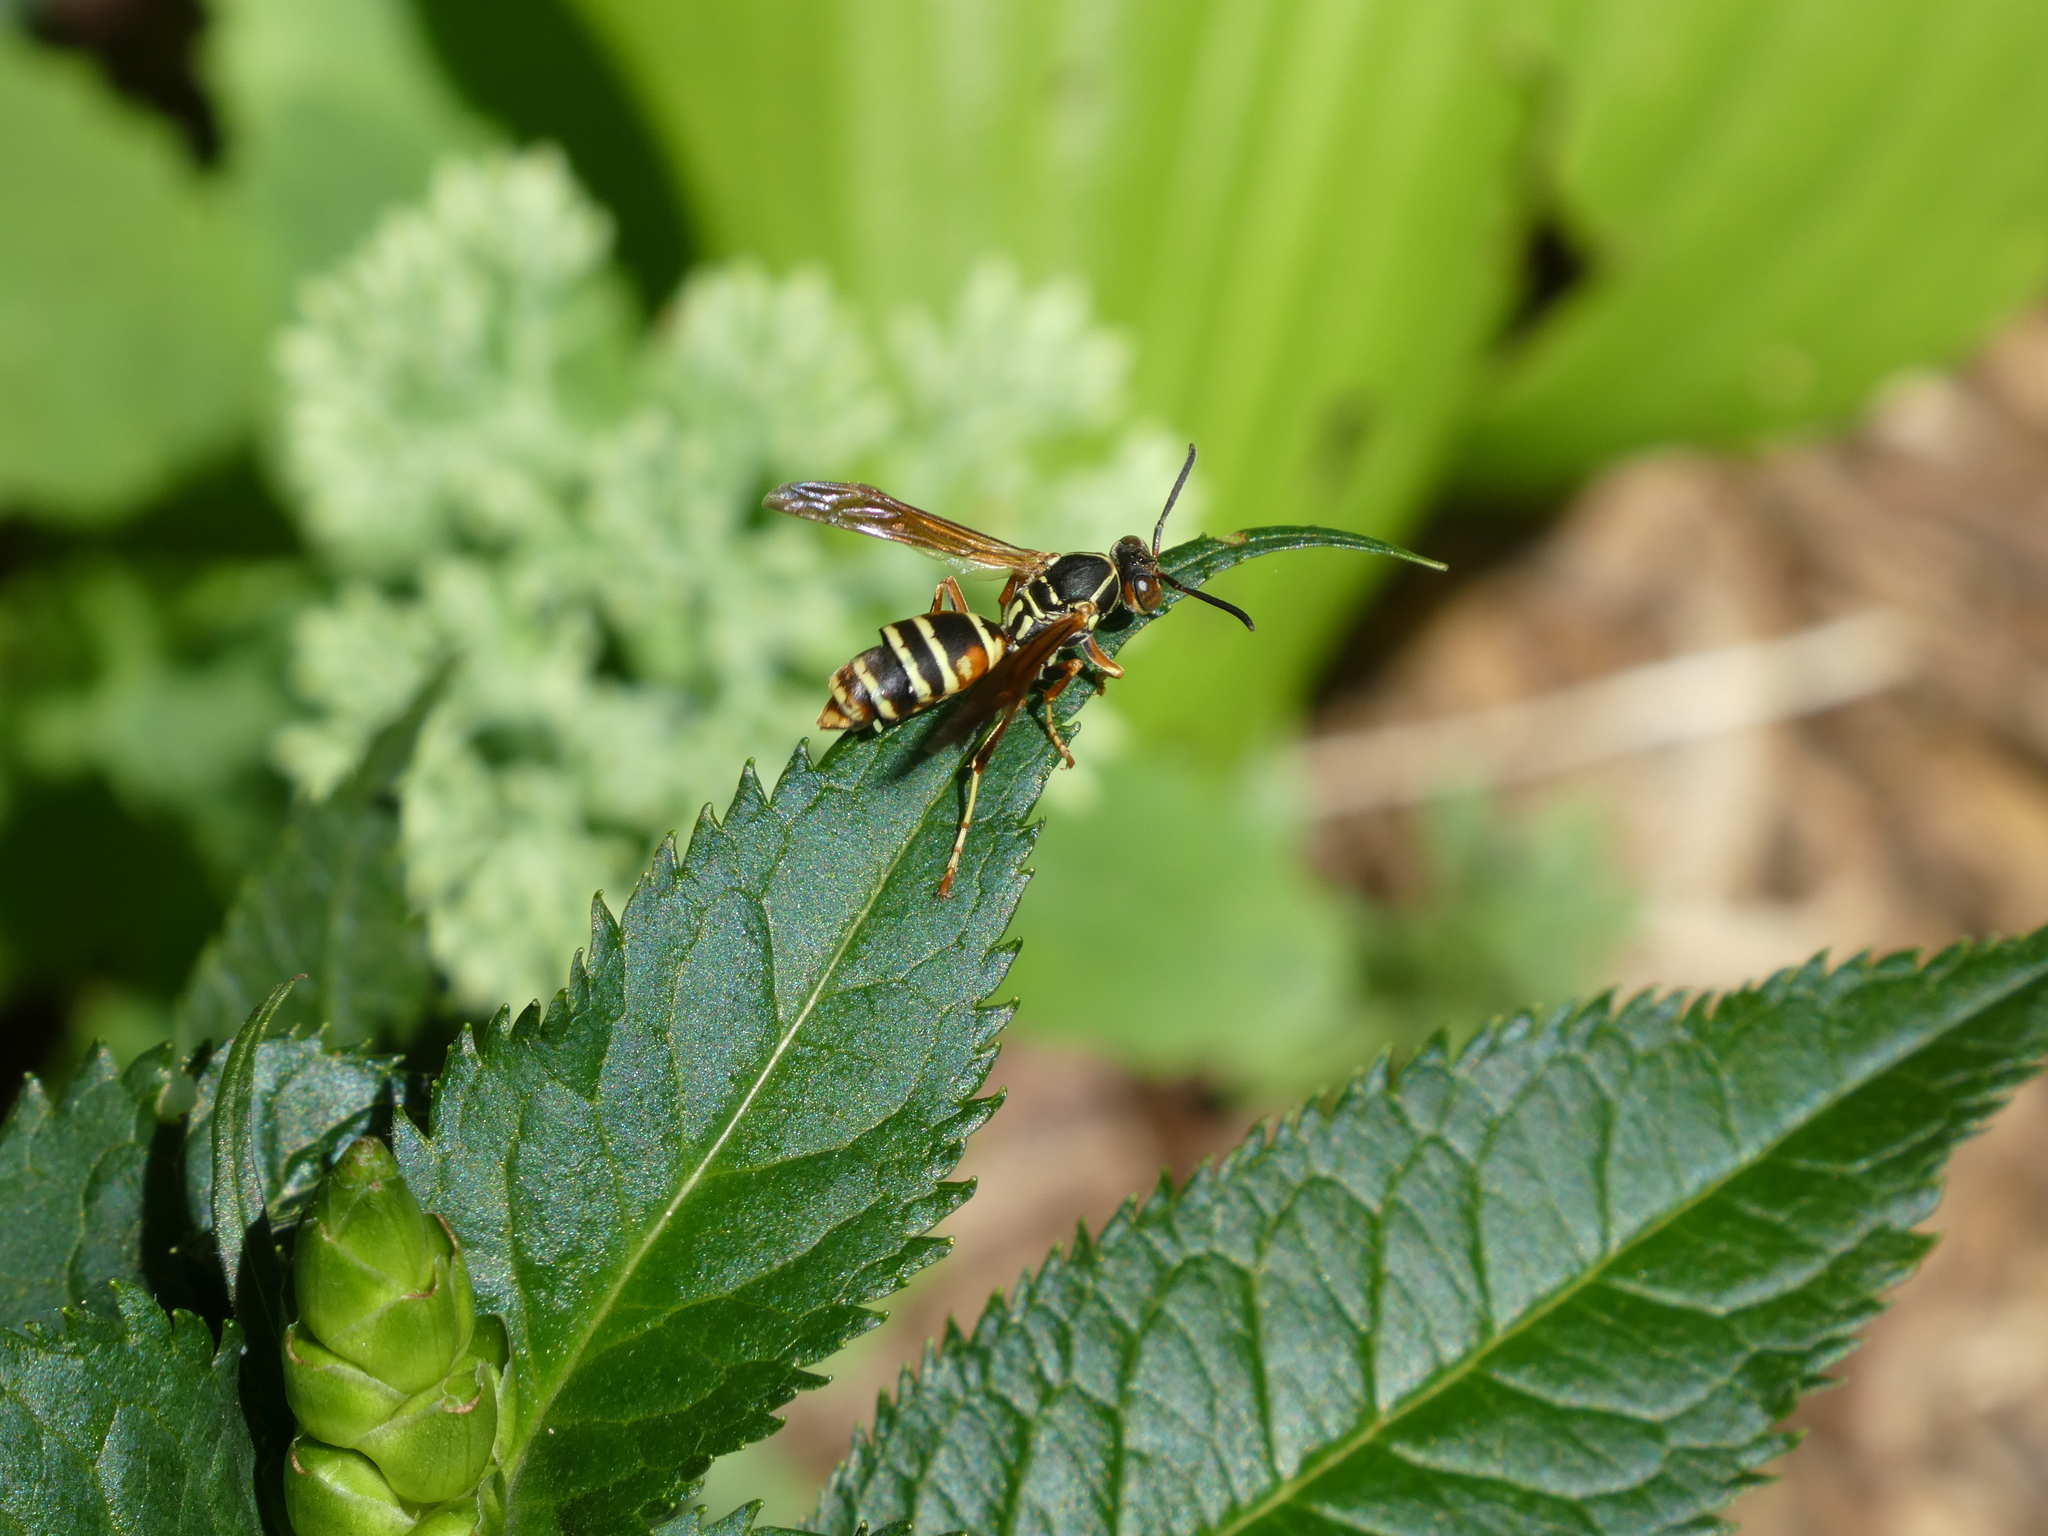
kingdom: Animalia
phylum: Arthropoda
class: Insecta
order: Hymenoptera
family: Eumenidae
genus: Polistes
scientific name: Polistes fuscatus
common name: Dark paper wasp
